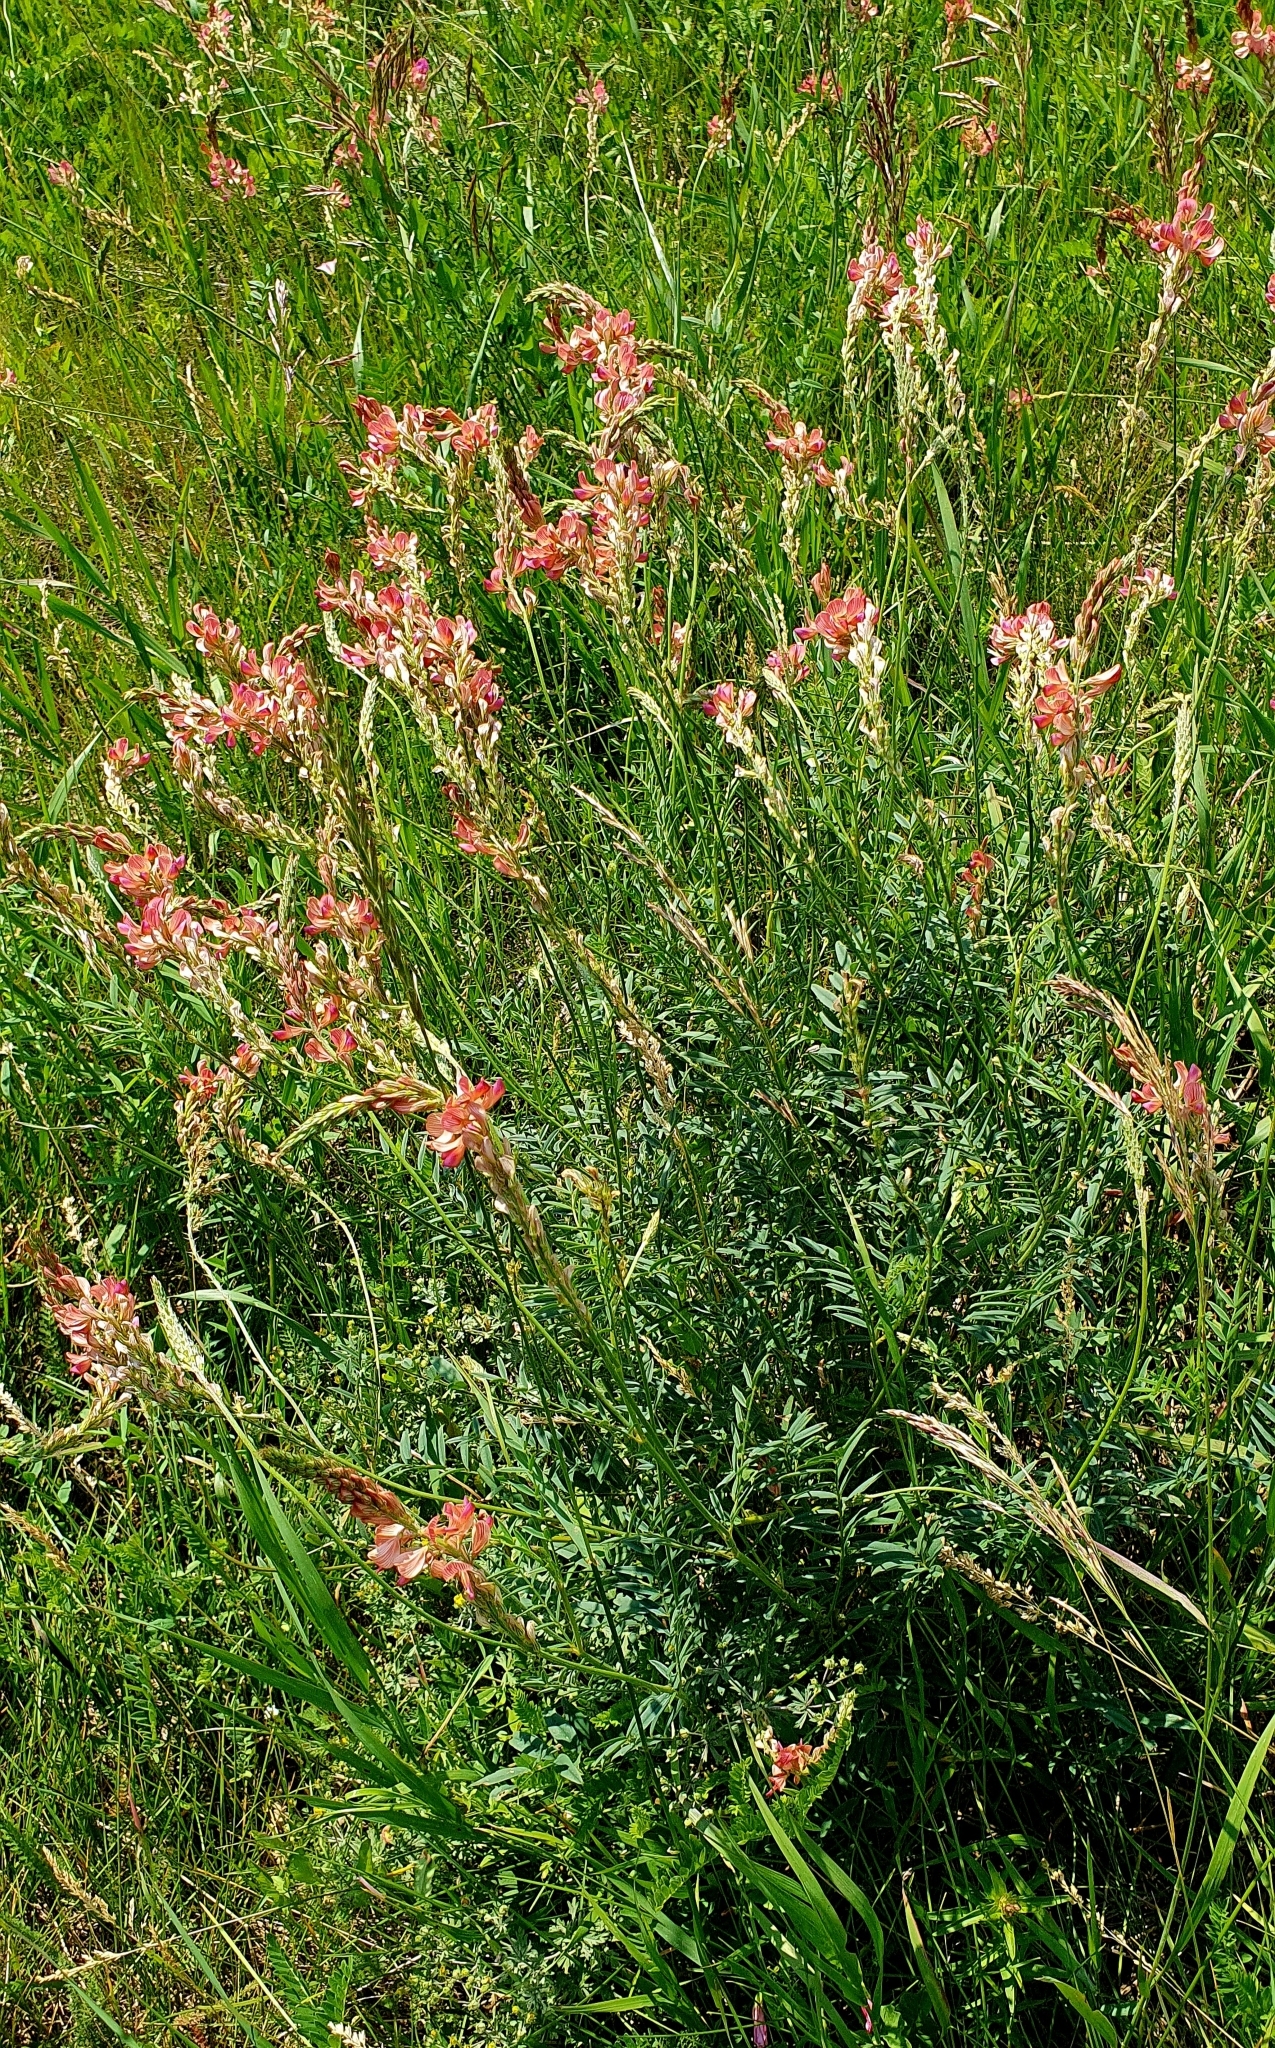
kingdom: Plantae
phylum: Tracheophyta
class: Magnoliopsida
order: Fabales
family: Fabaceae
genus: Onobrychis
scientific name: Onobrychis viciifolia
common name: Sainfoin
